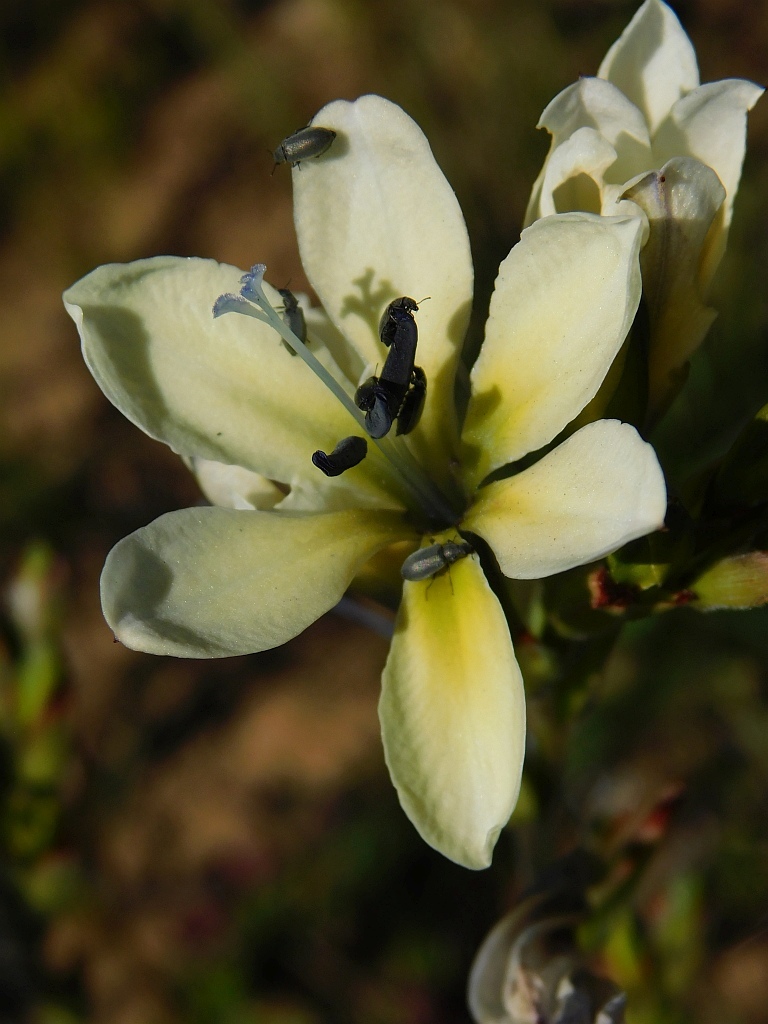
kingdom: Plantae
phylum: Tracheophyta
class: Liliopsida
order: Asparagales
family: Iridaceae
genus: Babiana
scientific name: Babiana nervosa
